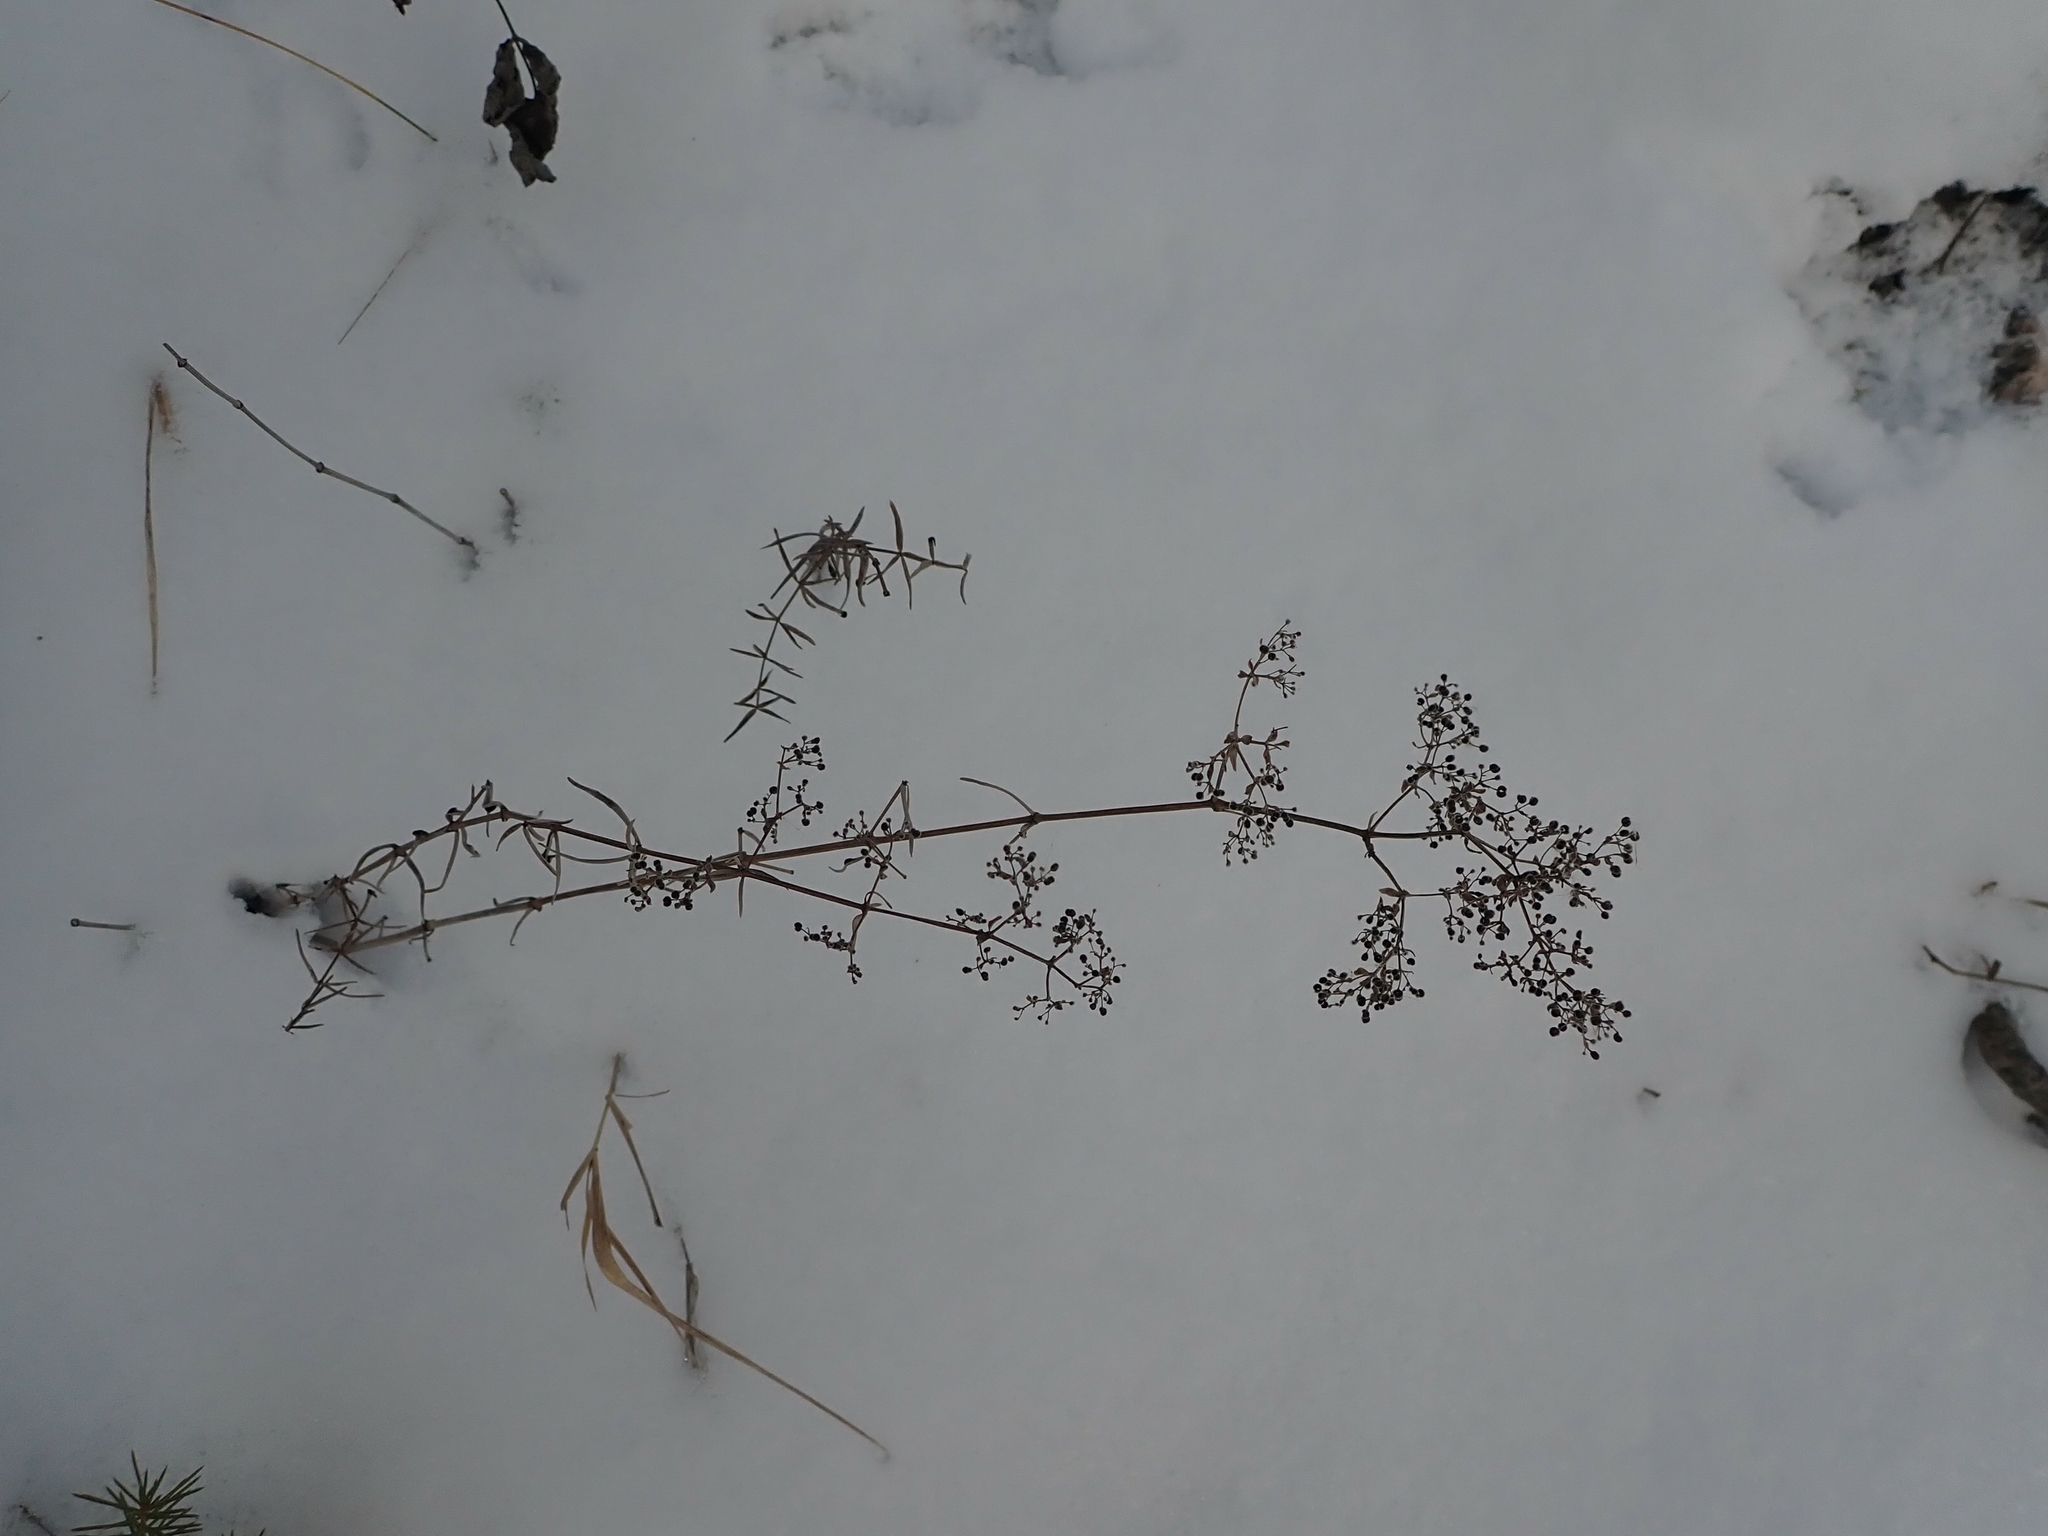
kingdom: Plantae
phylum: Tracheophyta
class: Magnoliopsida
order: Gentianales
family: Rubiaceae
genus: Galium
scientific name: Galium boreale
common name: Northern bedstraw
